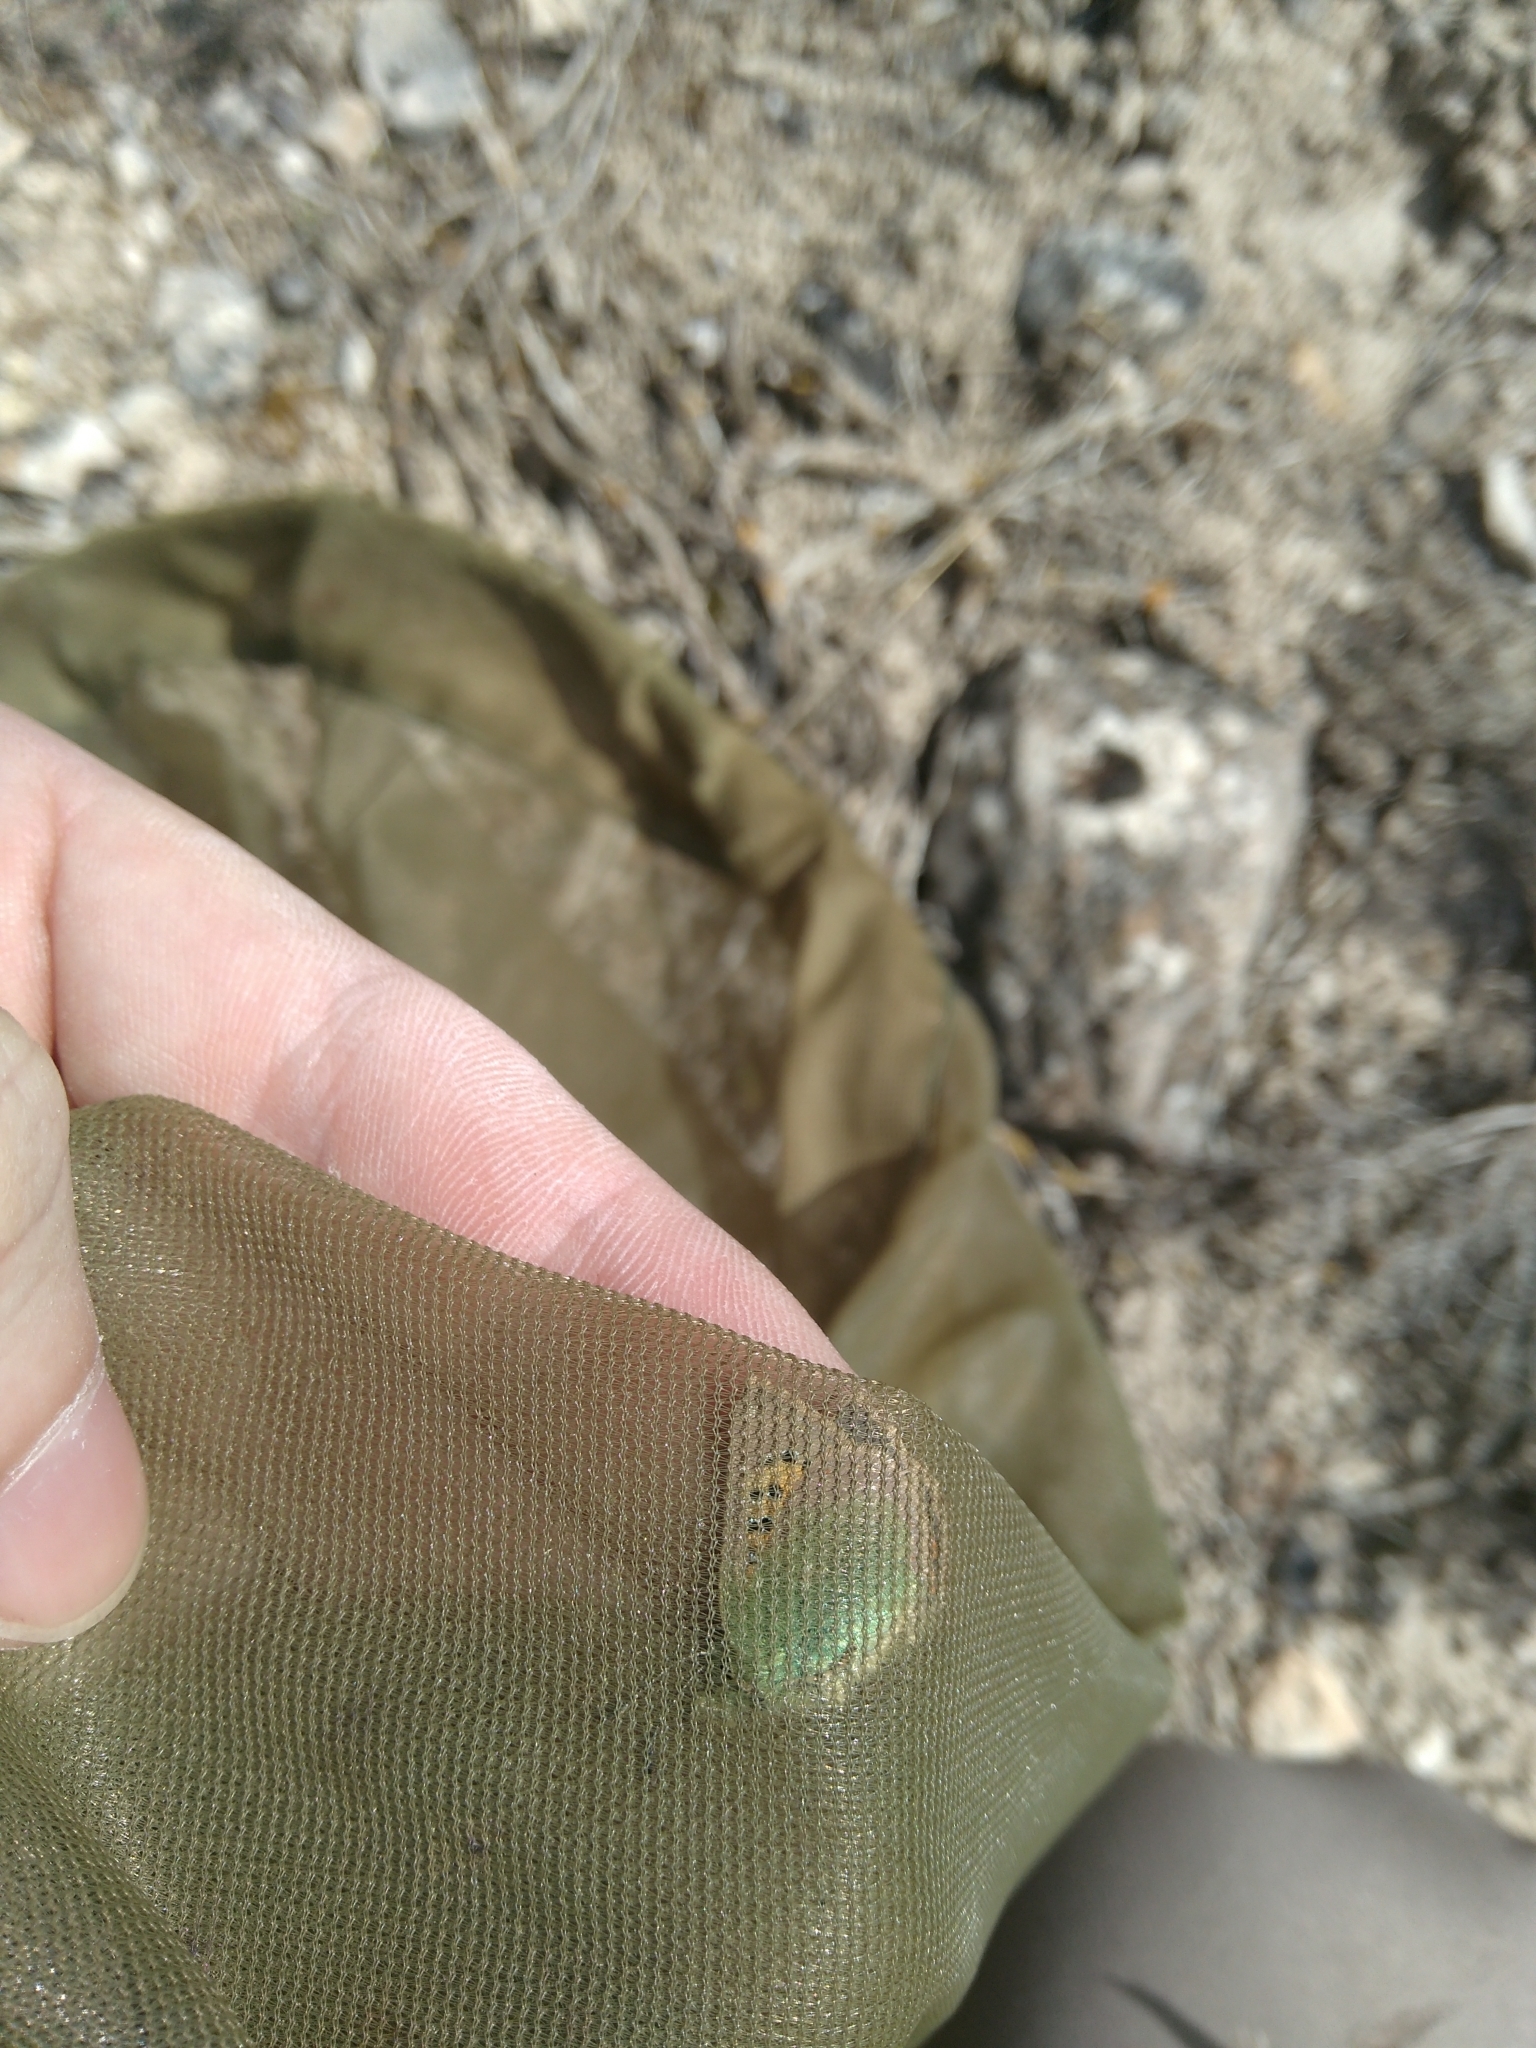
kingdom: Animalia
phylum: Arthropoda
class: Insecta
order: Lepidoptera
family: Lycaenidae
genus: Tomares
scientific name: Tomares ballus
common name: Provence hairstreak
